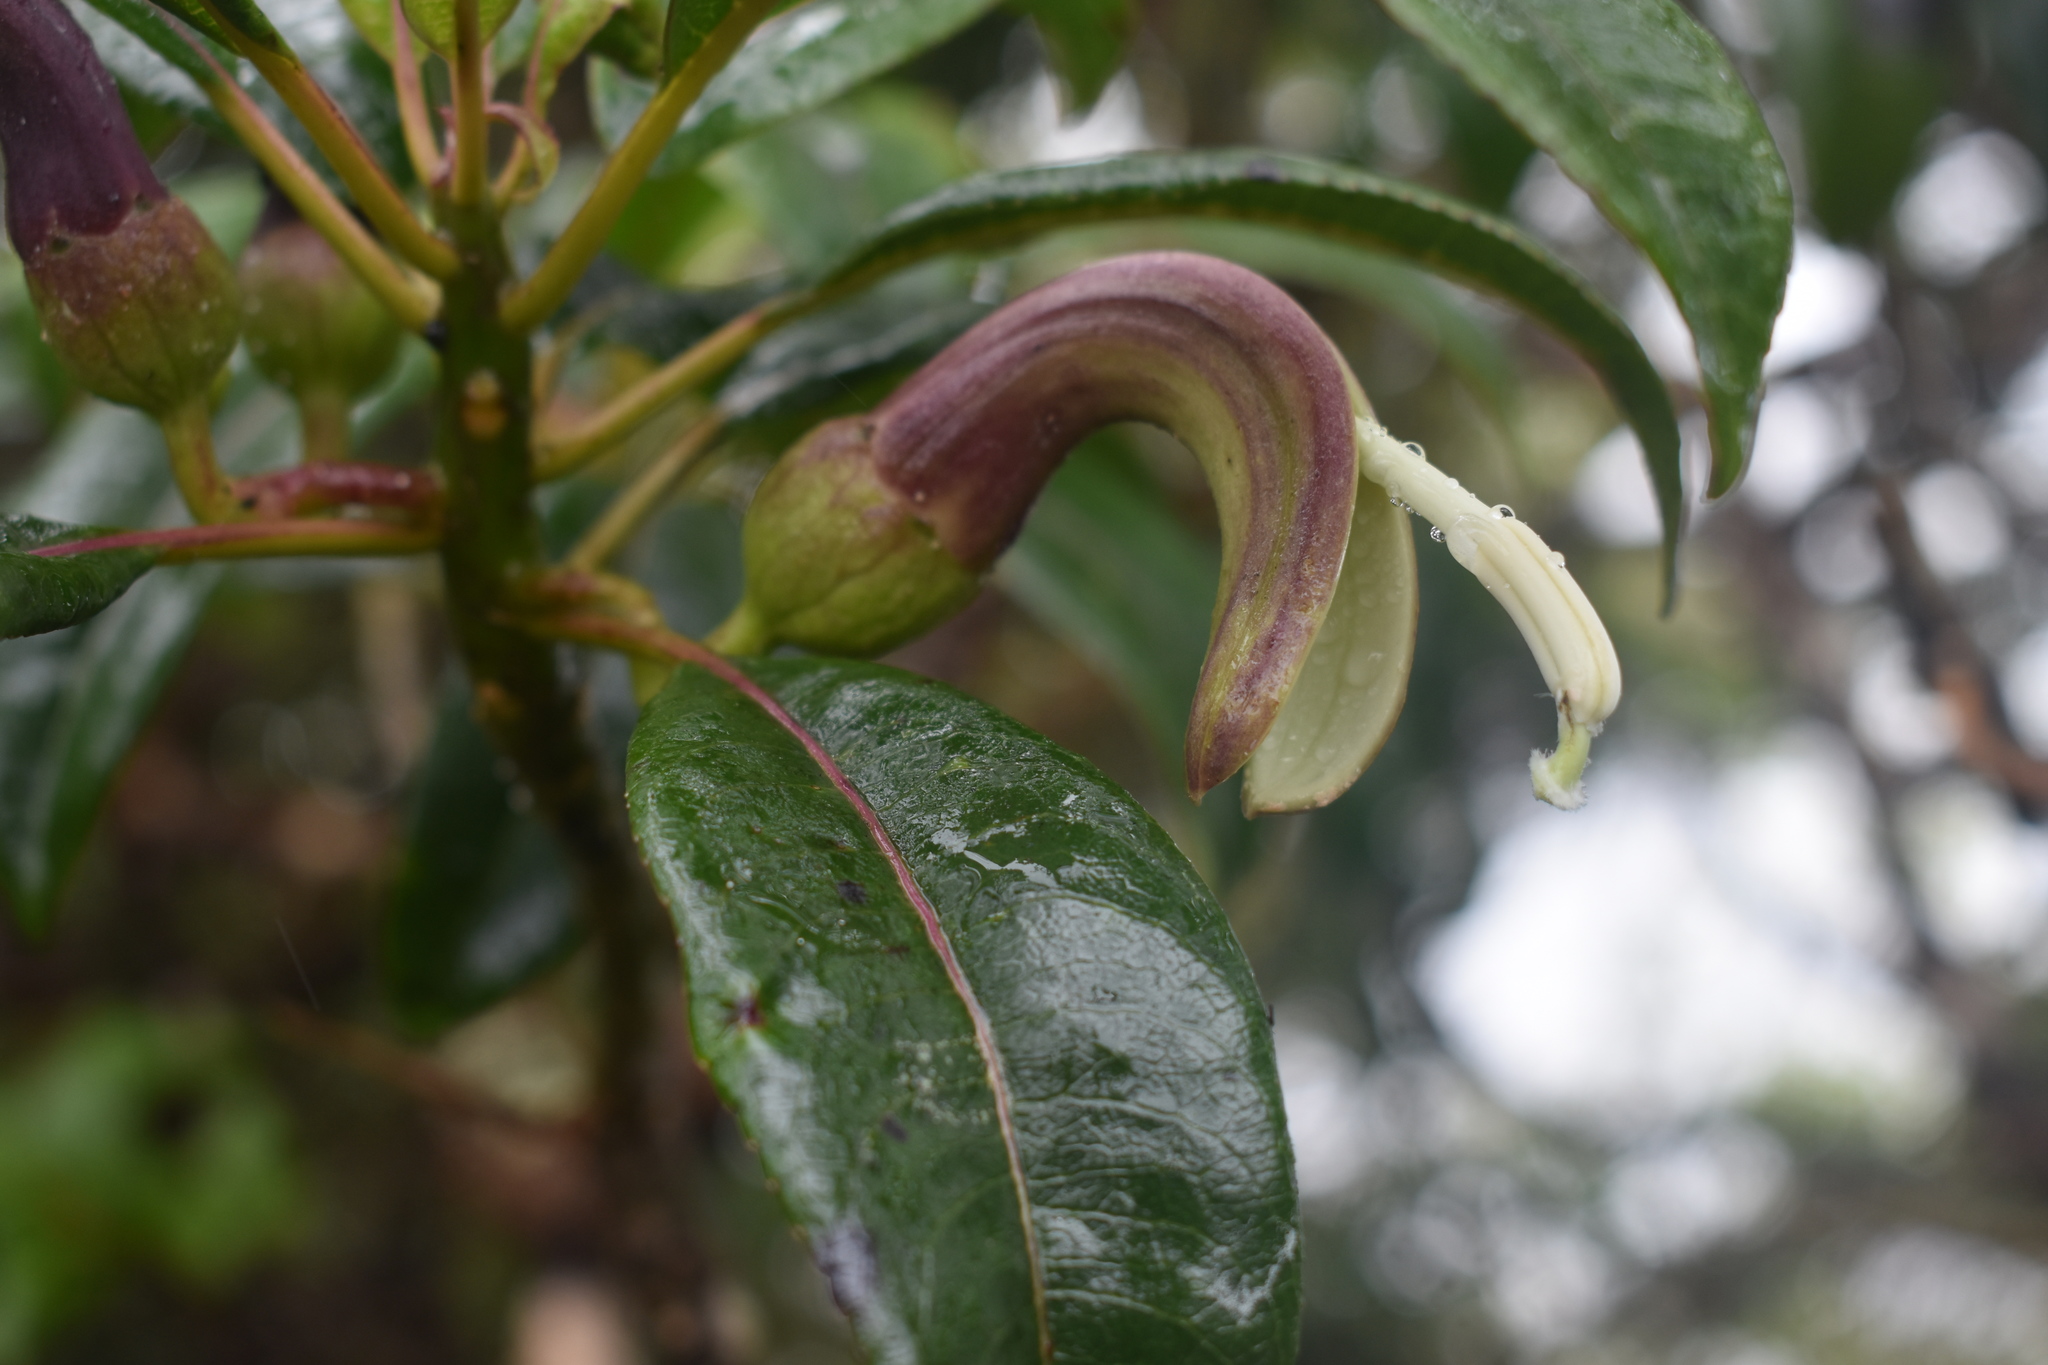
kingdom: Plantae
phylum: Tracheophyta
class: Magnoliopsida
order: Asterales
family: Campanulaceae
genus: Clermontia
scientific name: Clermontia fauriei
